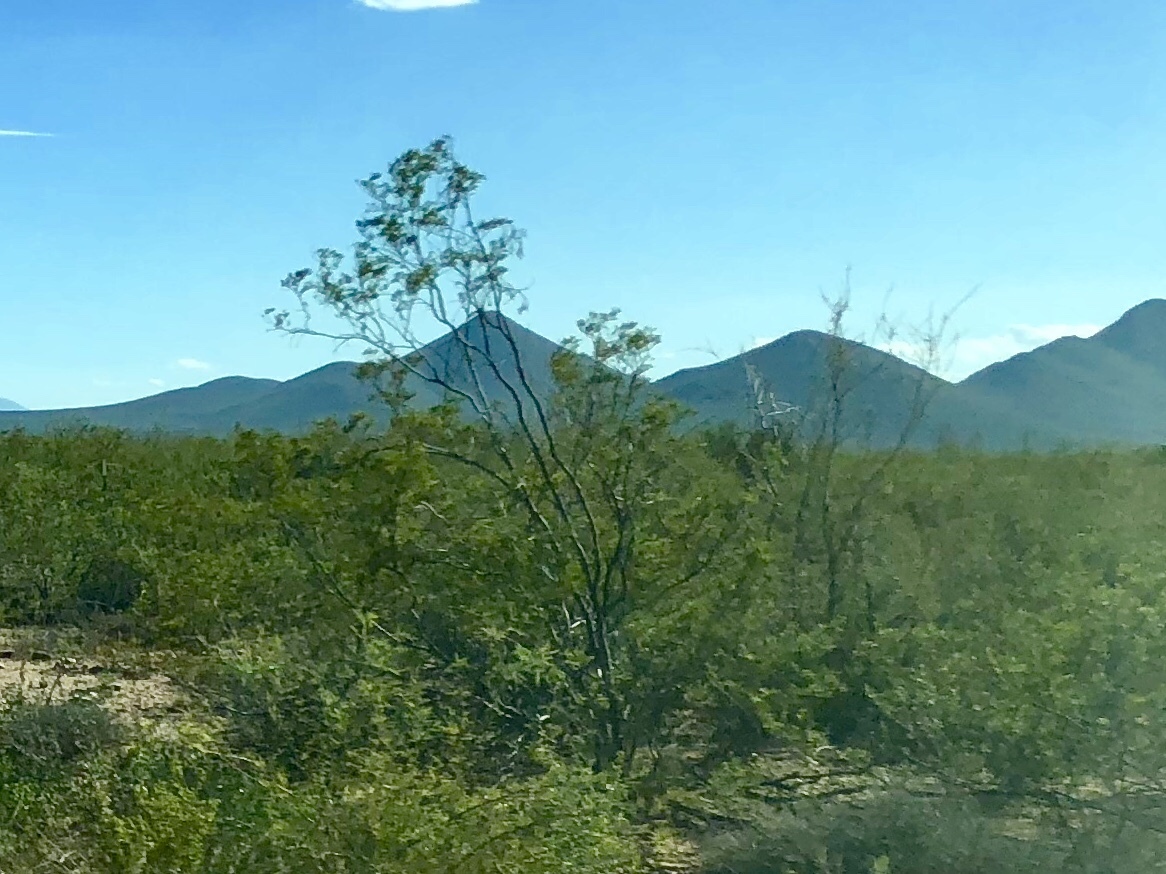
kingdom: Plantae
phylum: Tracheophyta
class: Magnoliopsida
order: Zygophyllales
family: Zygophyllaceae
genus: Larrea
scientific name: Larrea tridentata
